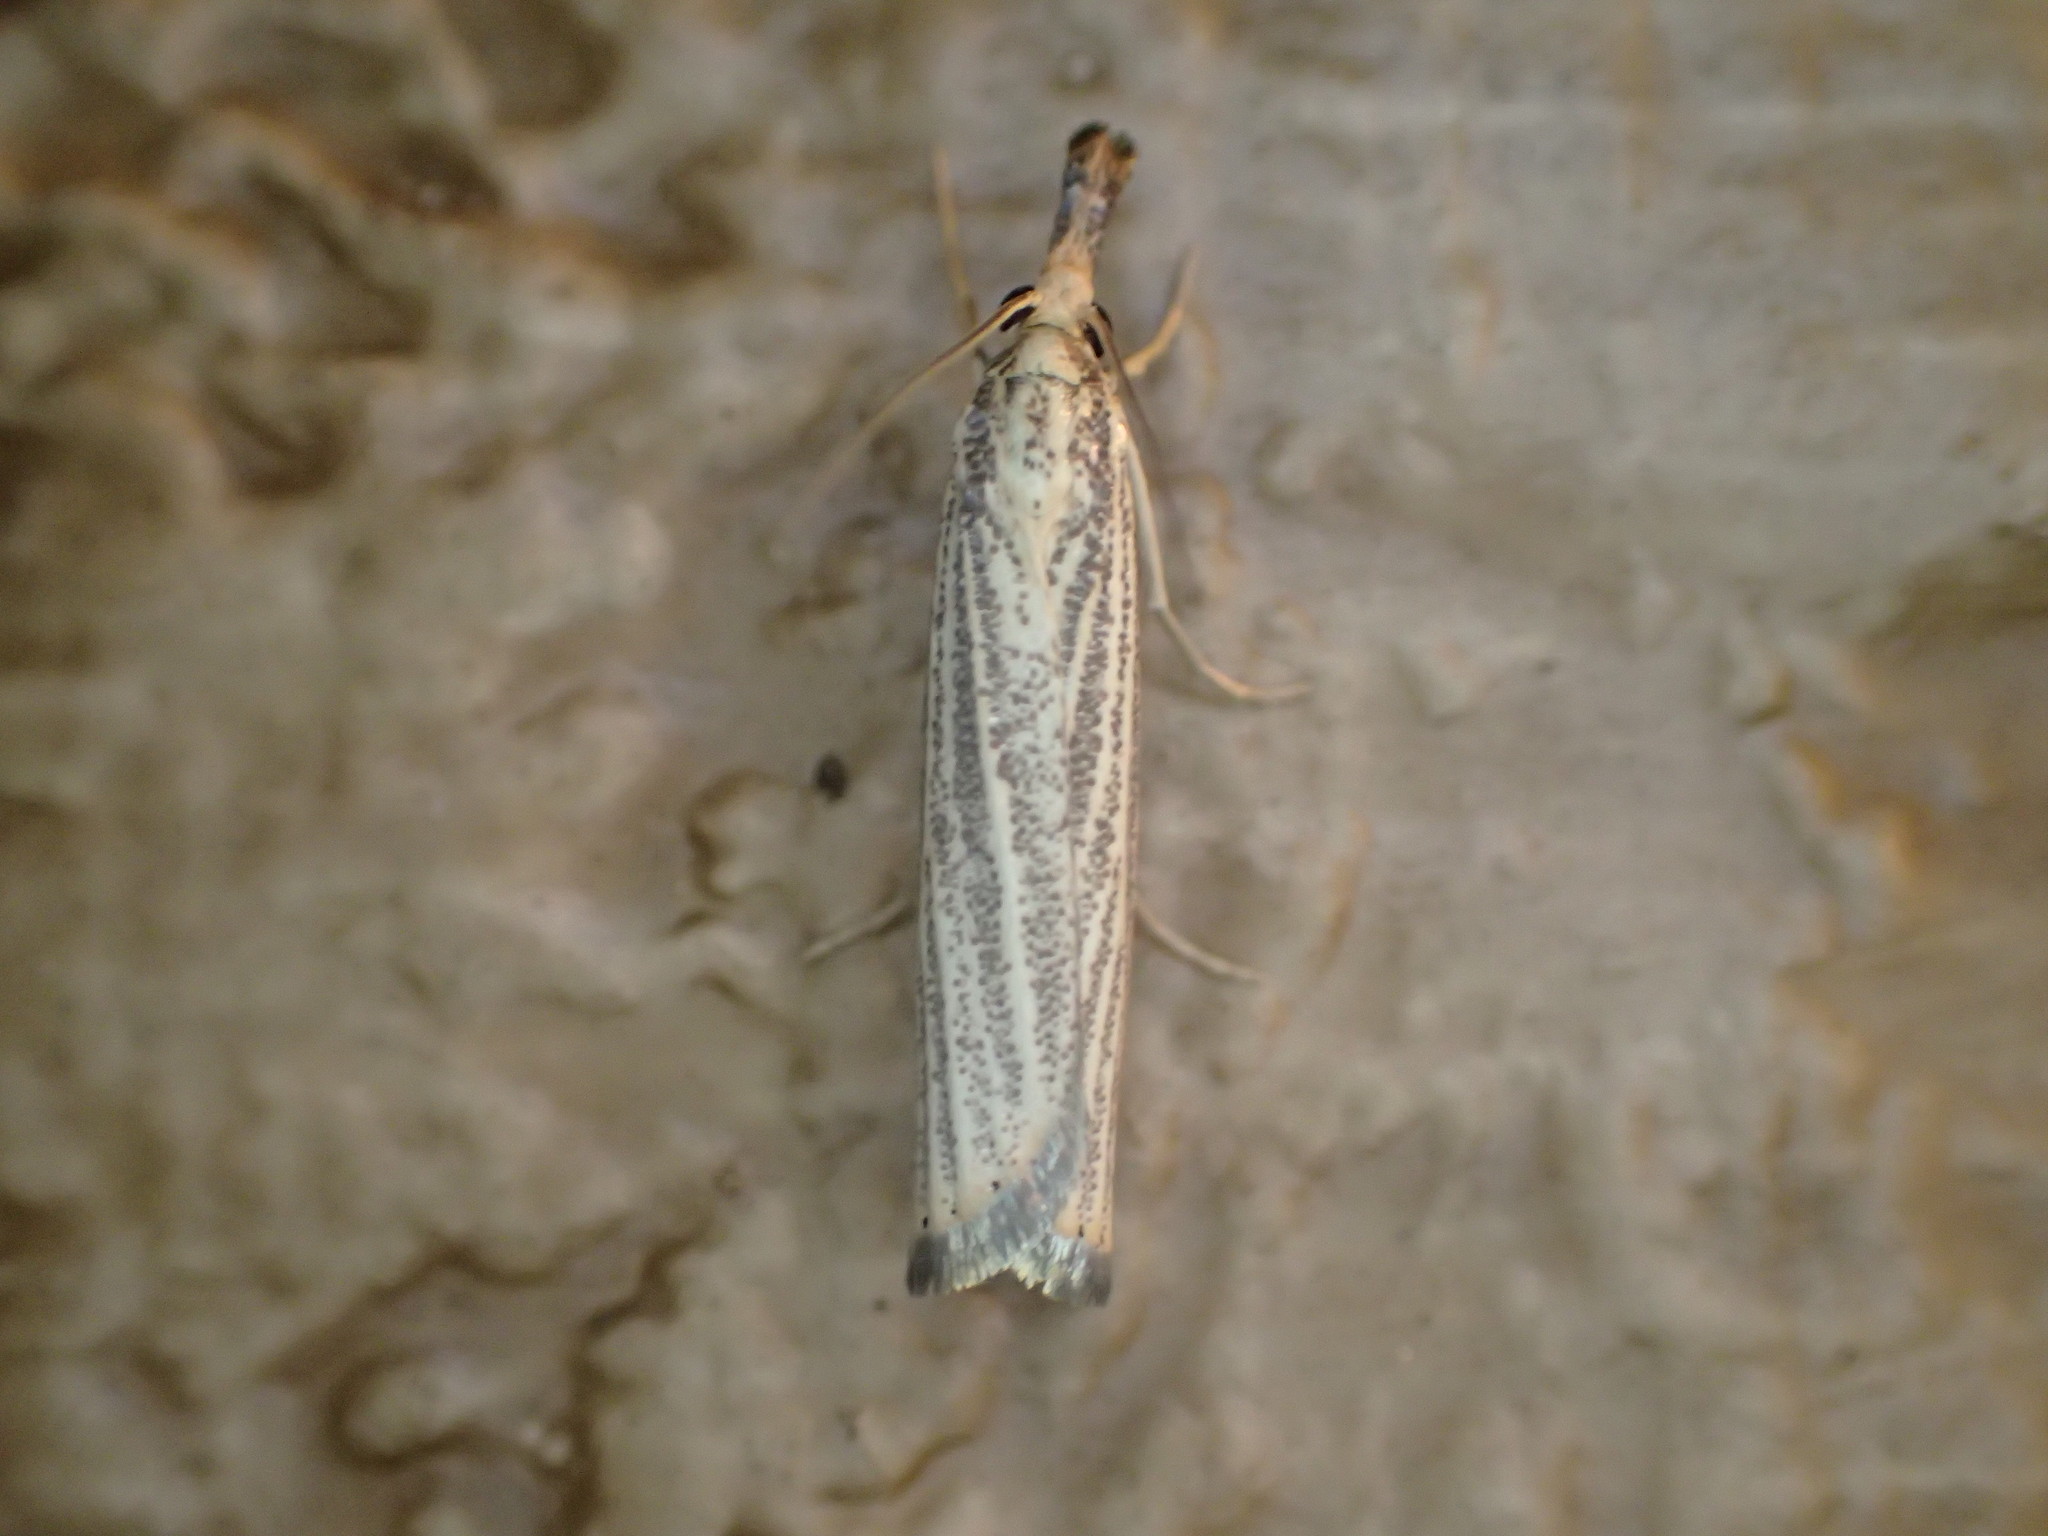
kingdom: Animalia
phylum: Arthropoda
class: Insecta
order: Lepidoptera
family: Crambidae
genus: Chrysoteuchia
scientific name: Chrysoteuchia topiarius
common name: Topiary grass-veneer
